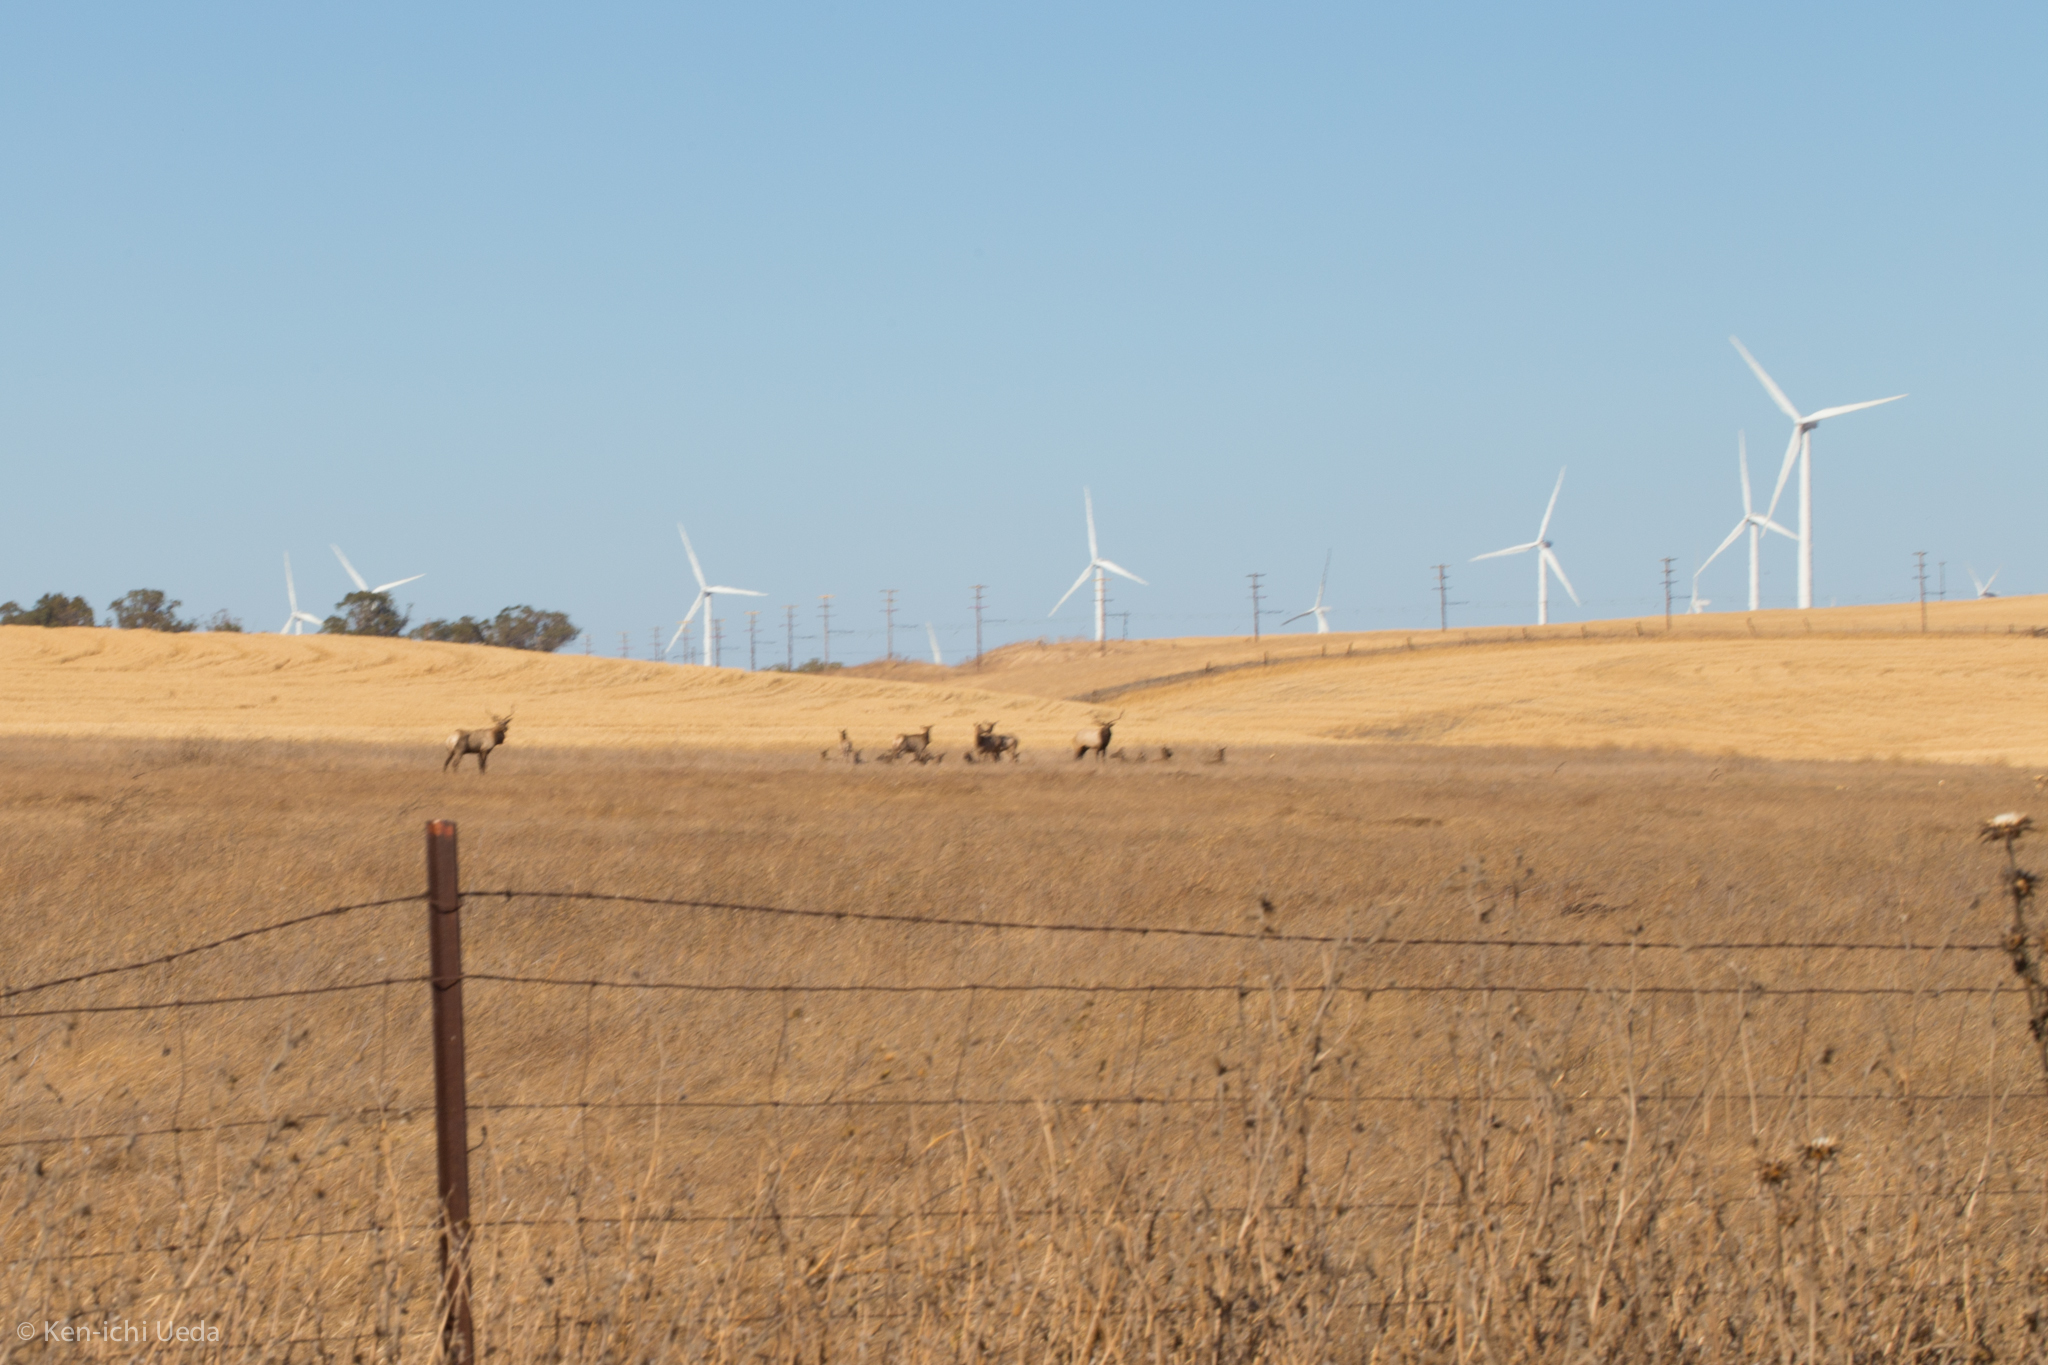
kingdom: Animalia
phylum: Chordata
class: Mammalia
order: Artiodactyla
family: Cervidae
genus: Cervus
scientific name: Cervus elaphus
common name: Red deer
